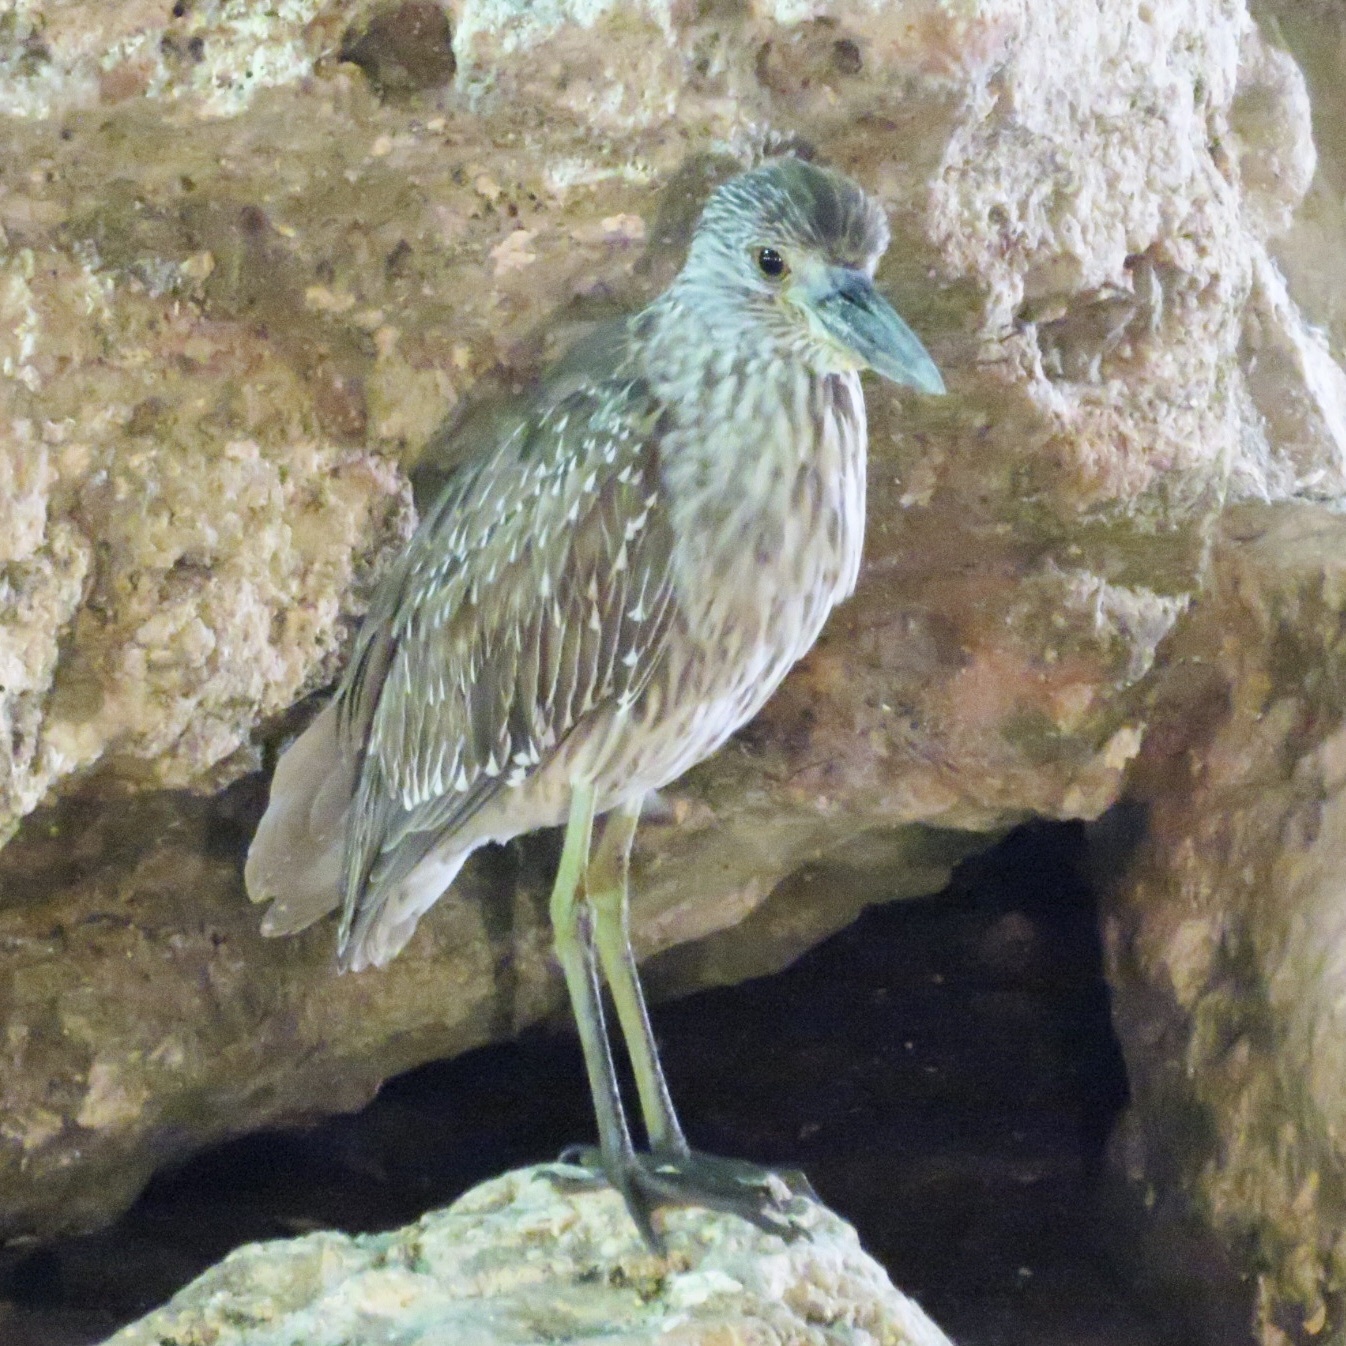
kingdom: Animalia
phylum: Chordata
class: Aves
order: Pelecaniformes
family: Ardeidae
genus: Nyctanassa
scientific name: Nyctanassa violacea
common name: Yellow-crowned night heron
